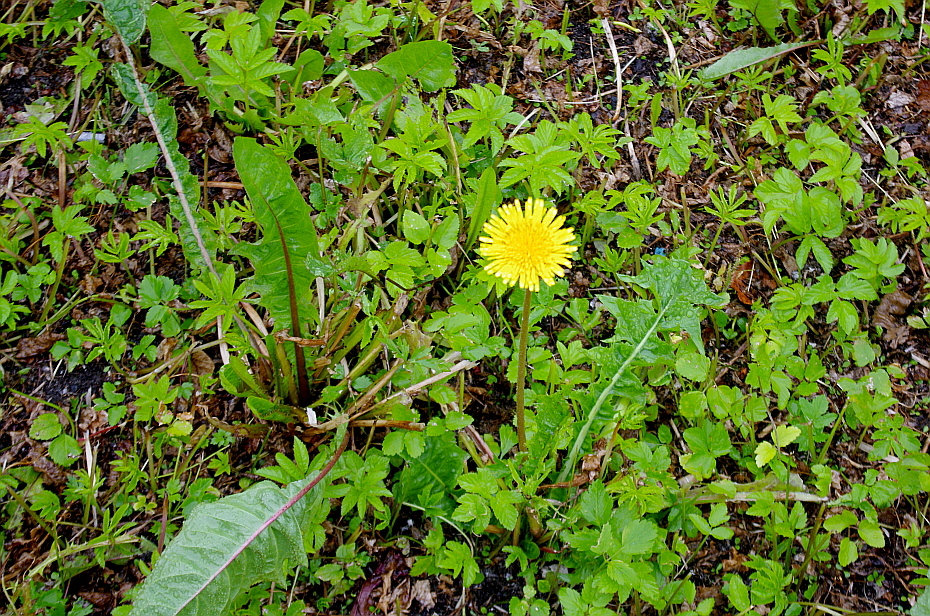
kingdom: Plantae
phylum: Tracheophyta
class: Magnoliopsida
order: Asterales
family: Asteraceae
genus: Taraxacum
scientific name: Taraxacum officinale
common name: Common dandelion
